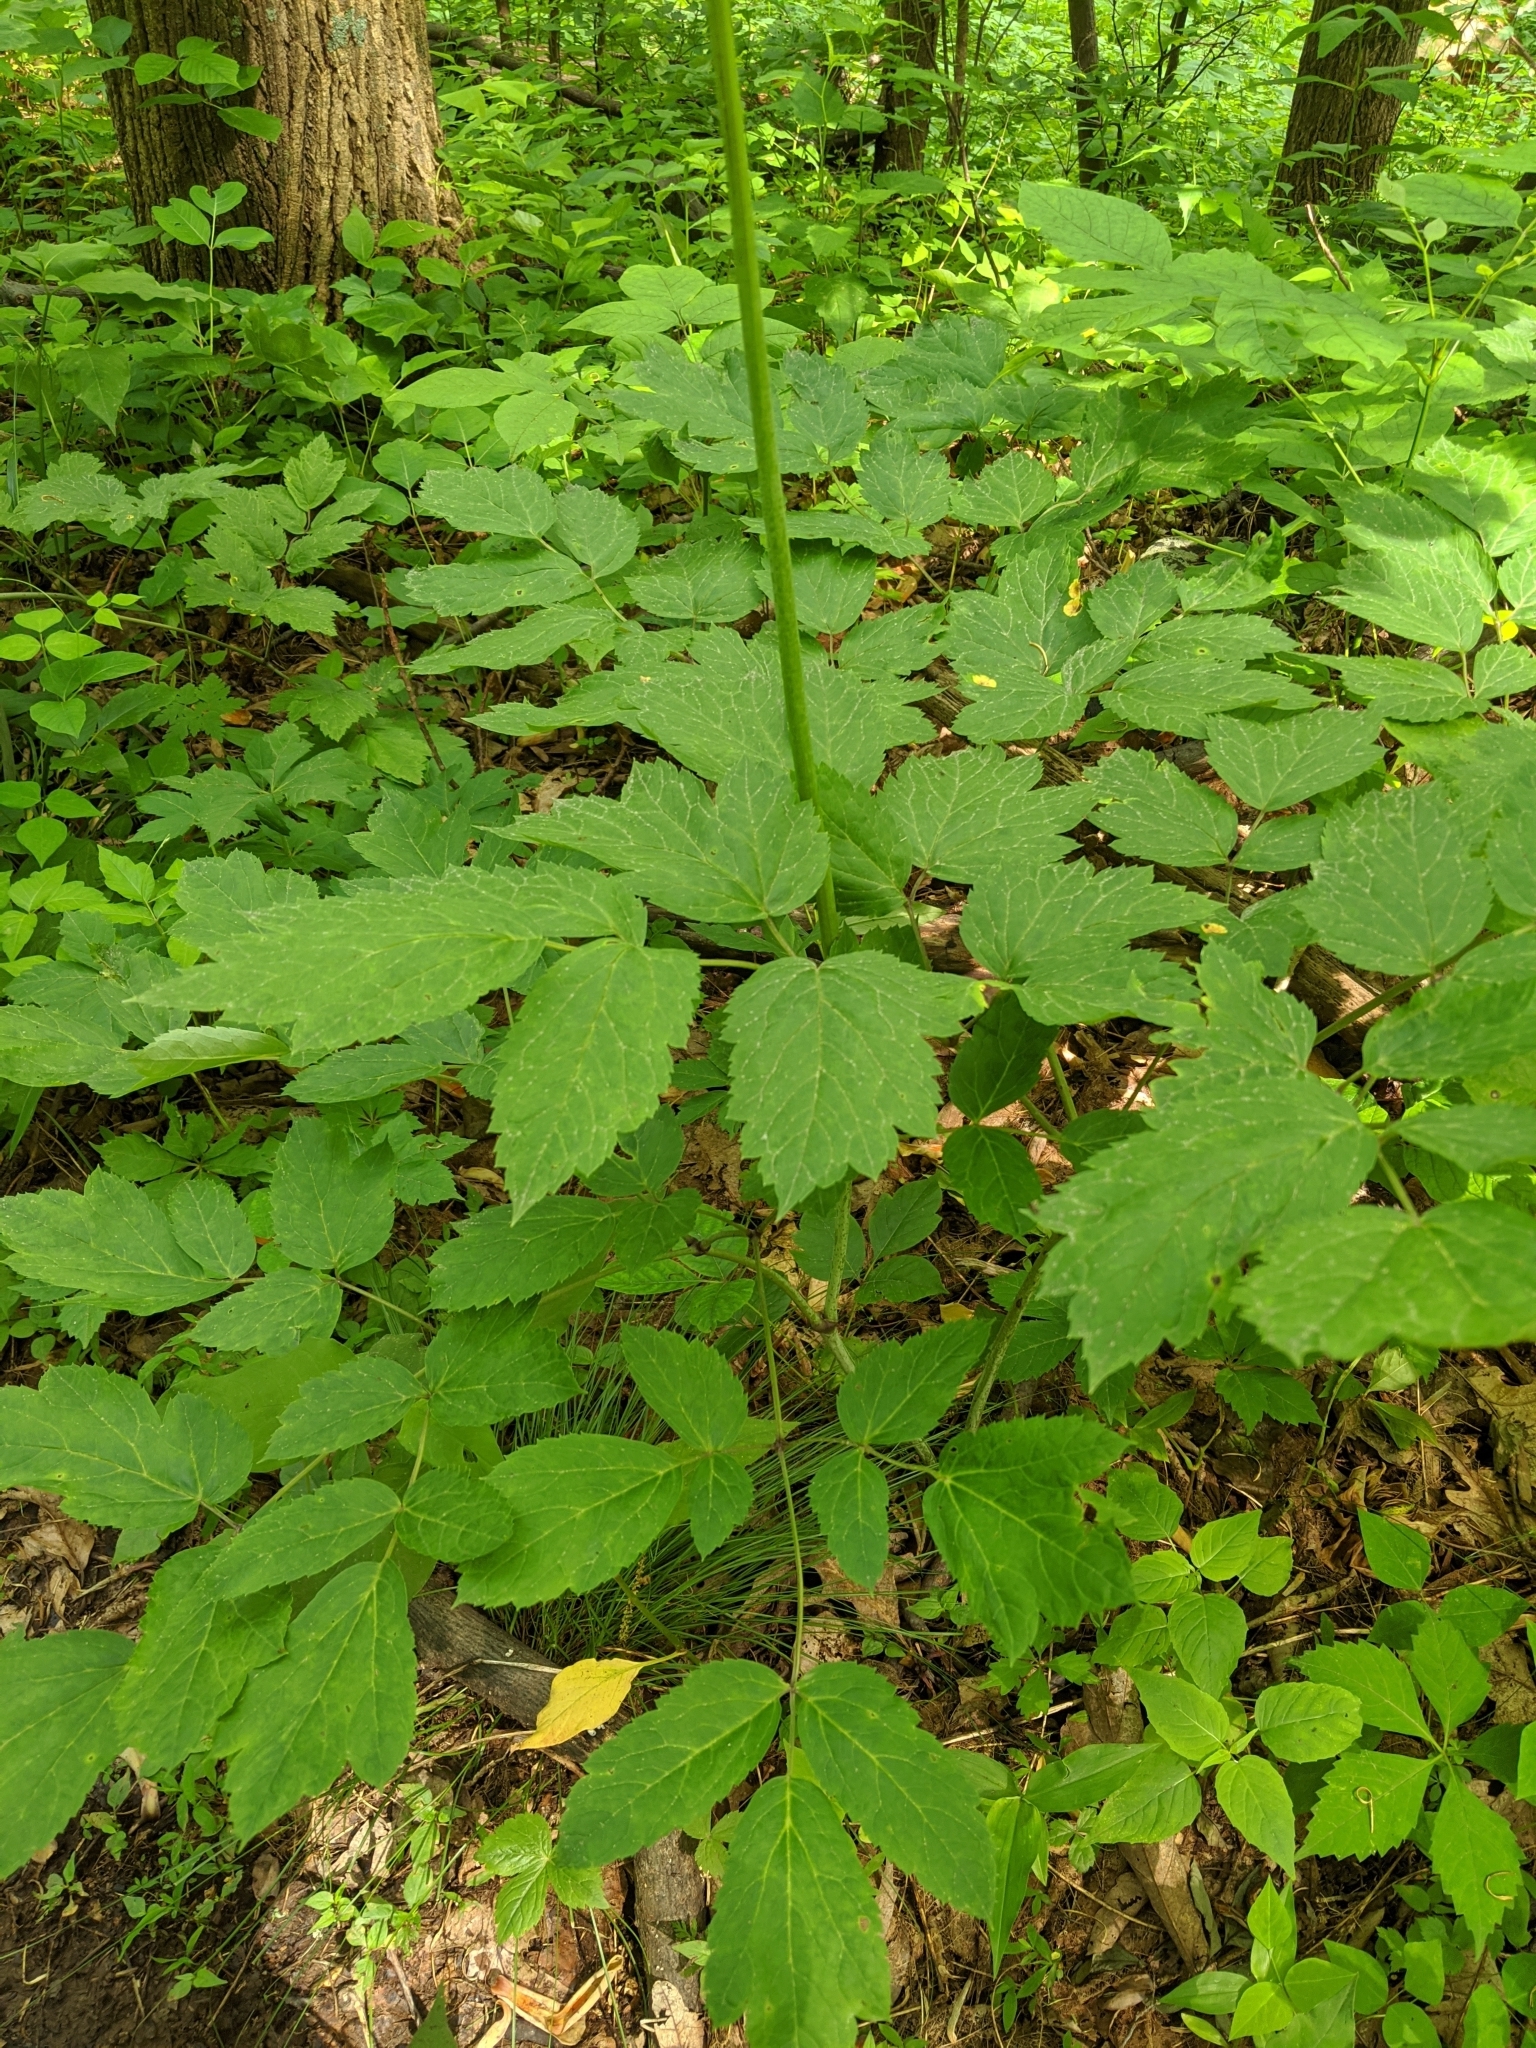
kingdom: Plantae
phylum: Tracheophyta
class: Magnoliopsida
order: Ranunculales
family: Ranunculaceae
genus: Actaea
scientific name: Actaea racemosa
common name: Black cohosh
